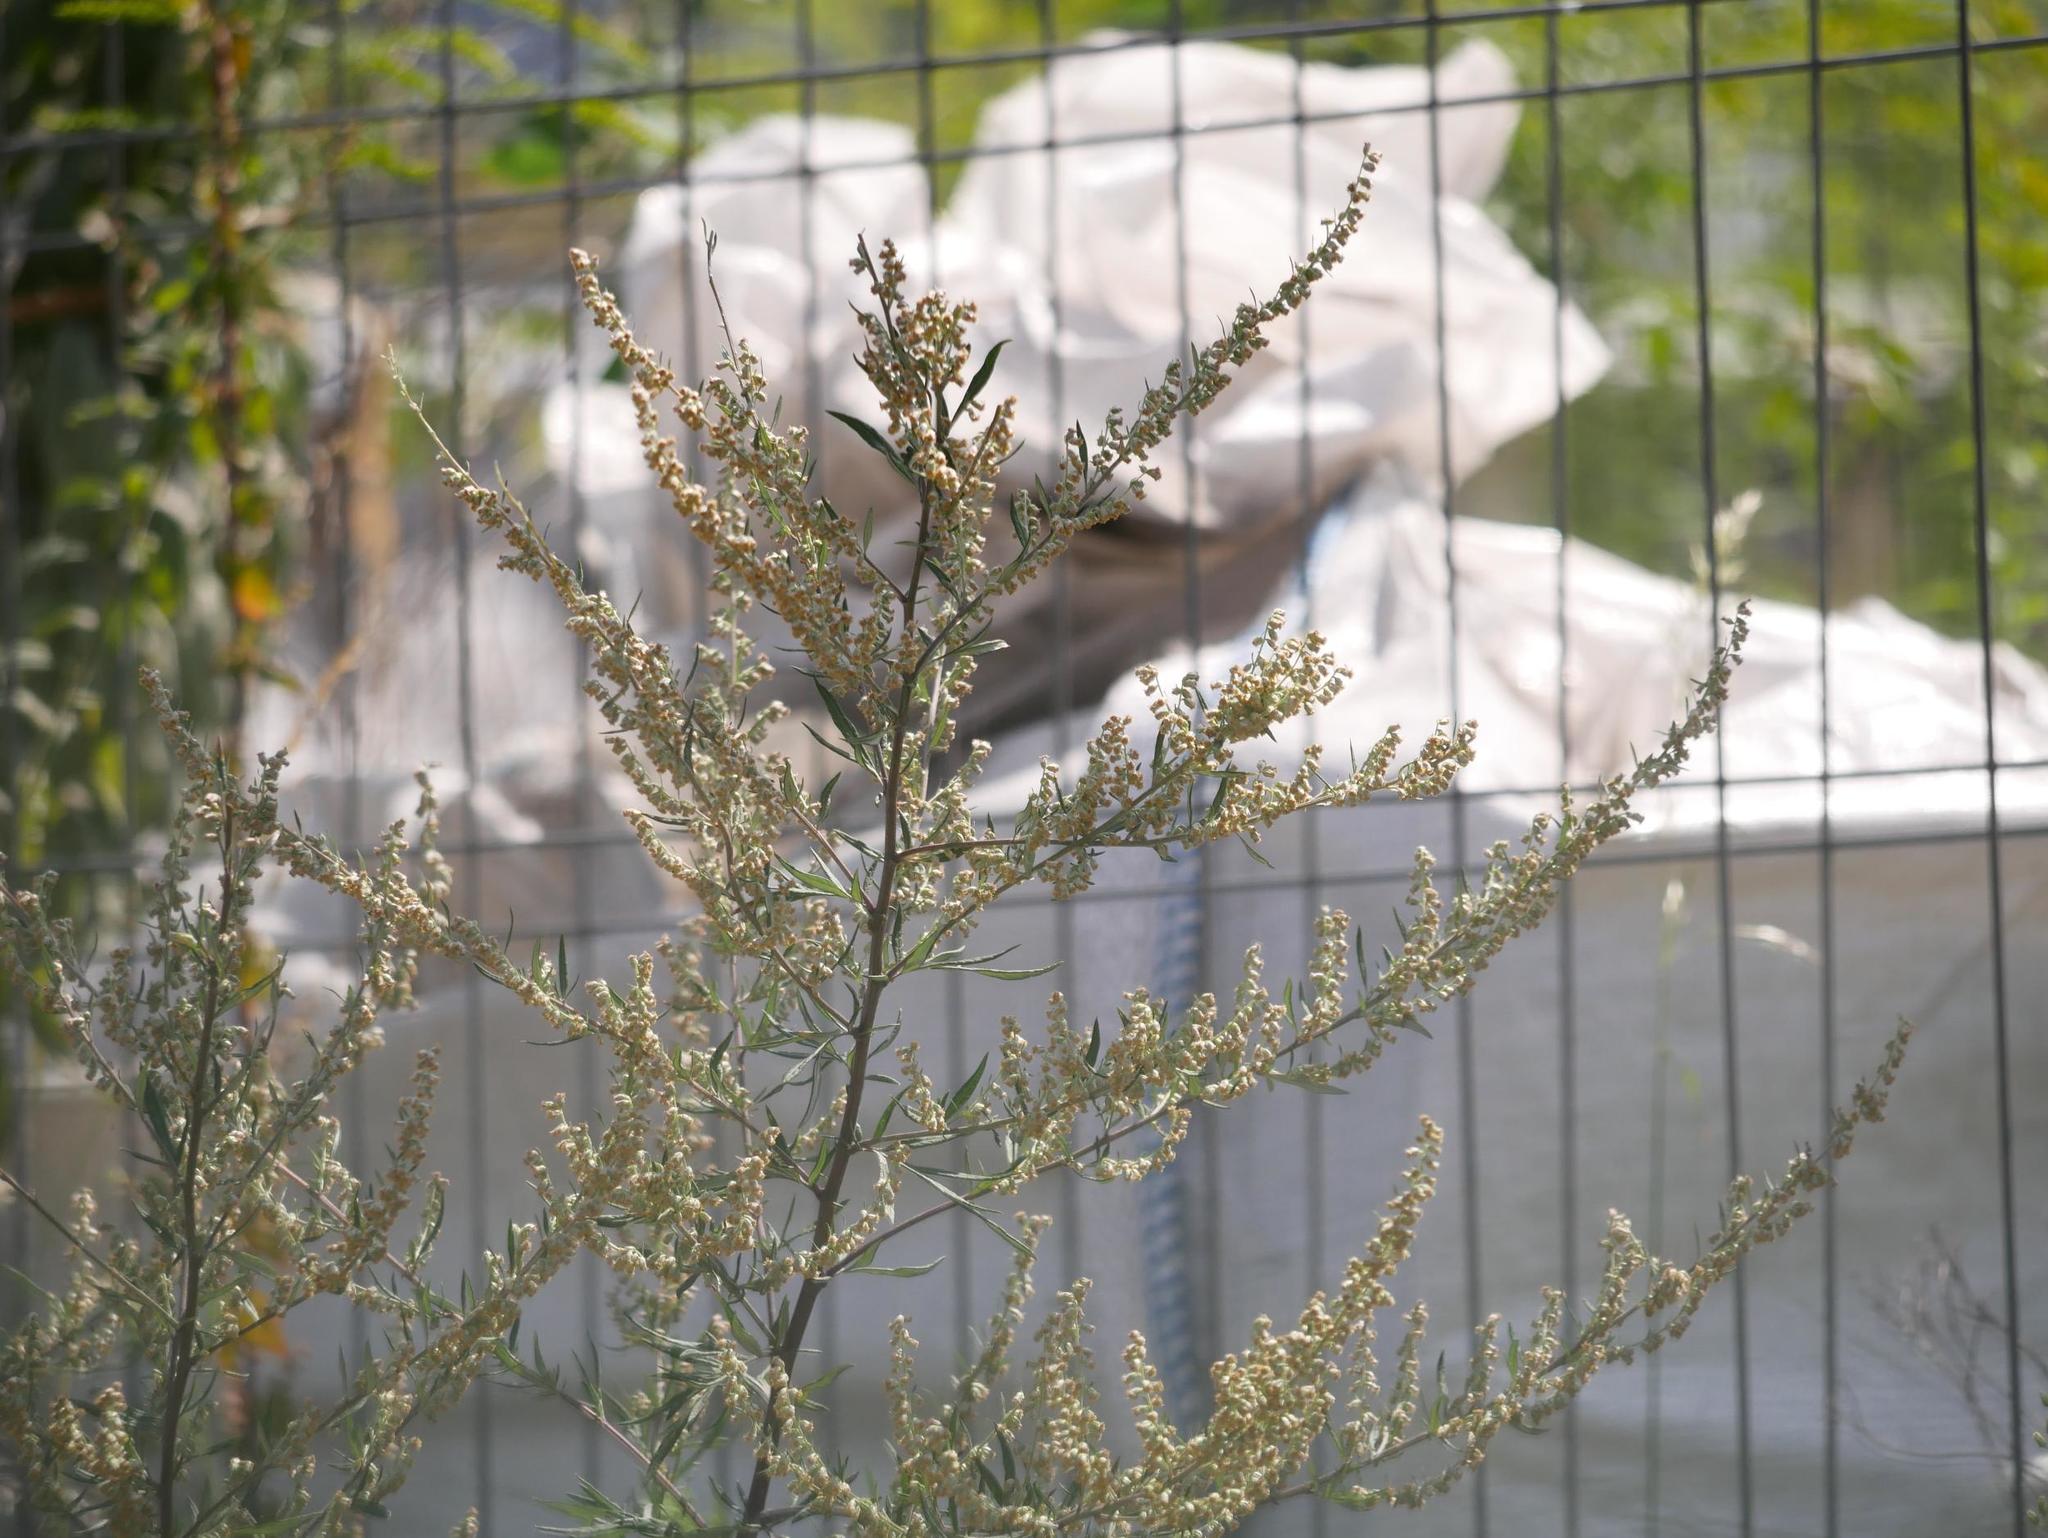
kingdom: Plantae
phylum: Tracheophyta
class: Magnoliopsida
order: Asterales
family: Asteraceae
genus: Artemisia
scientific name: Artemisia vulgaris
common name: Mugwort
